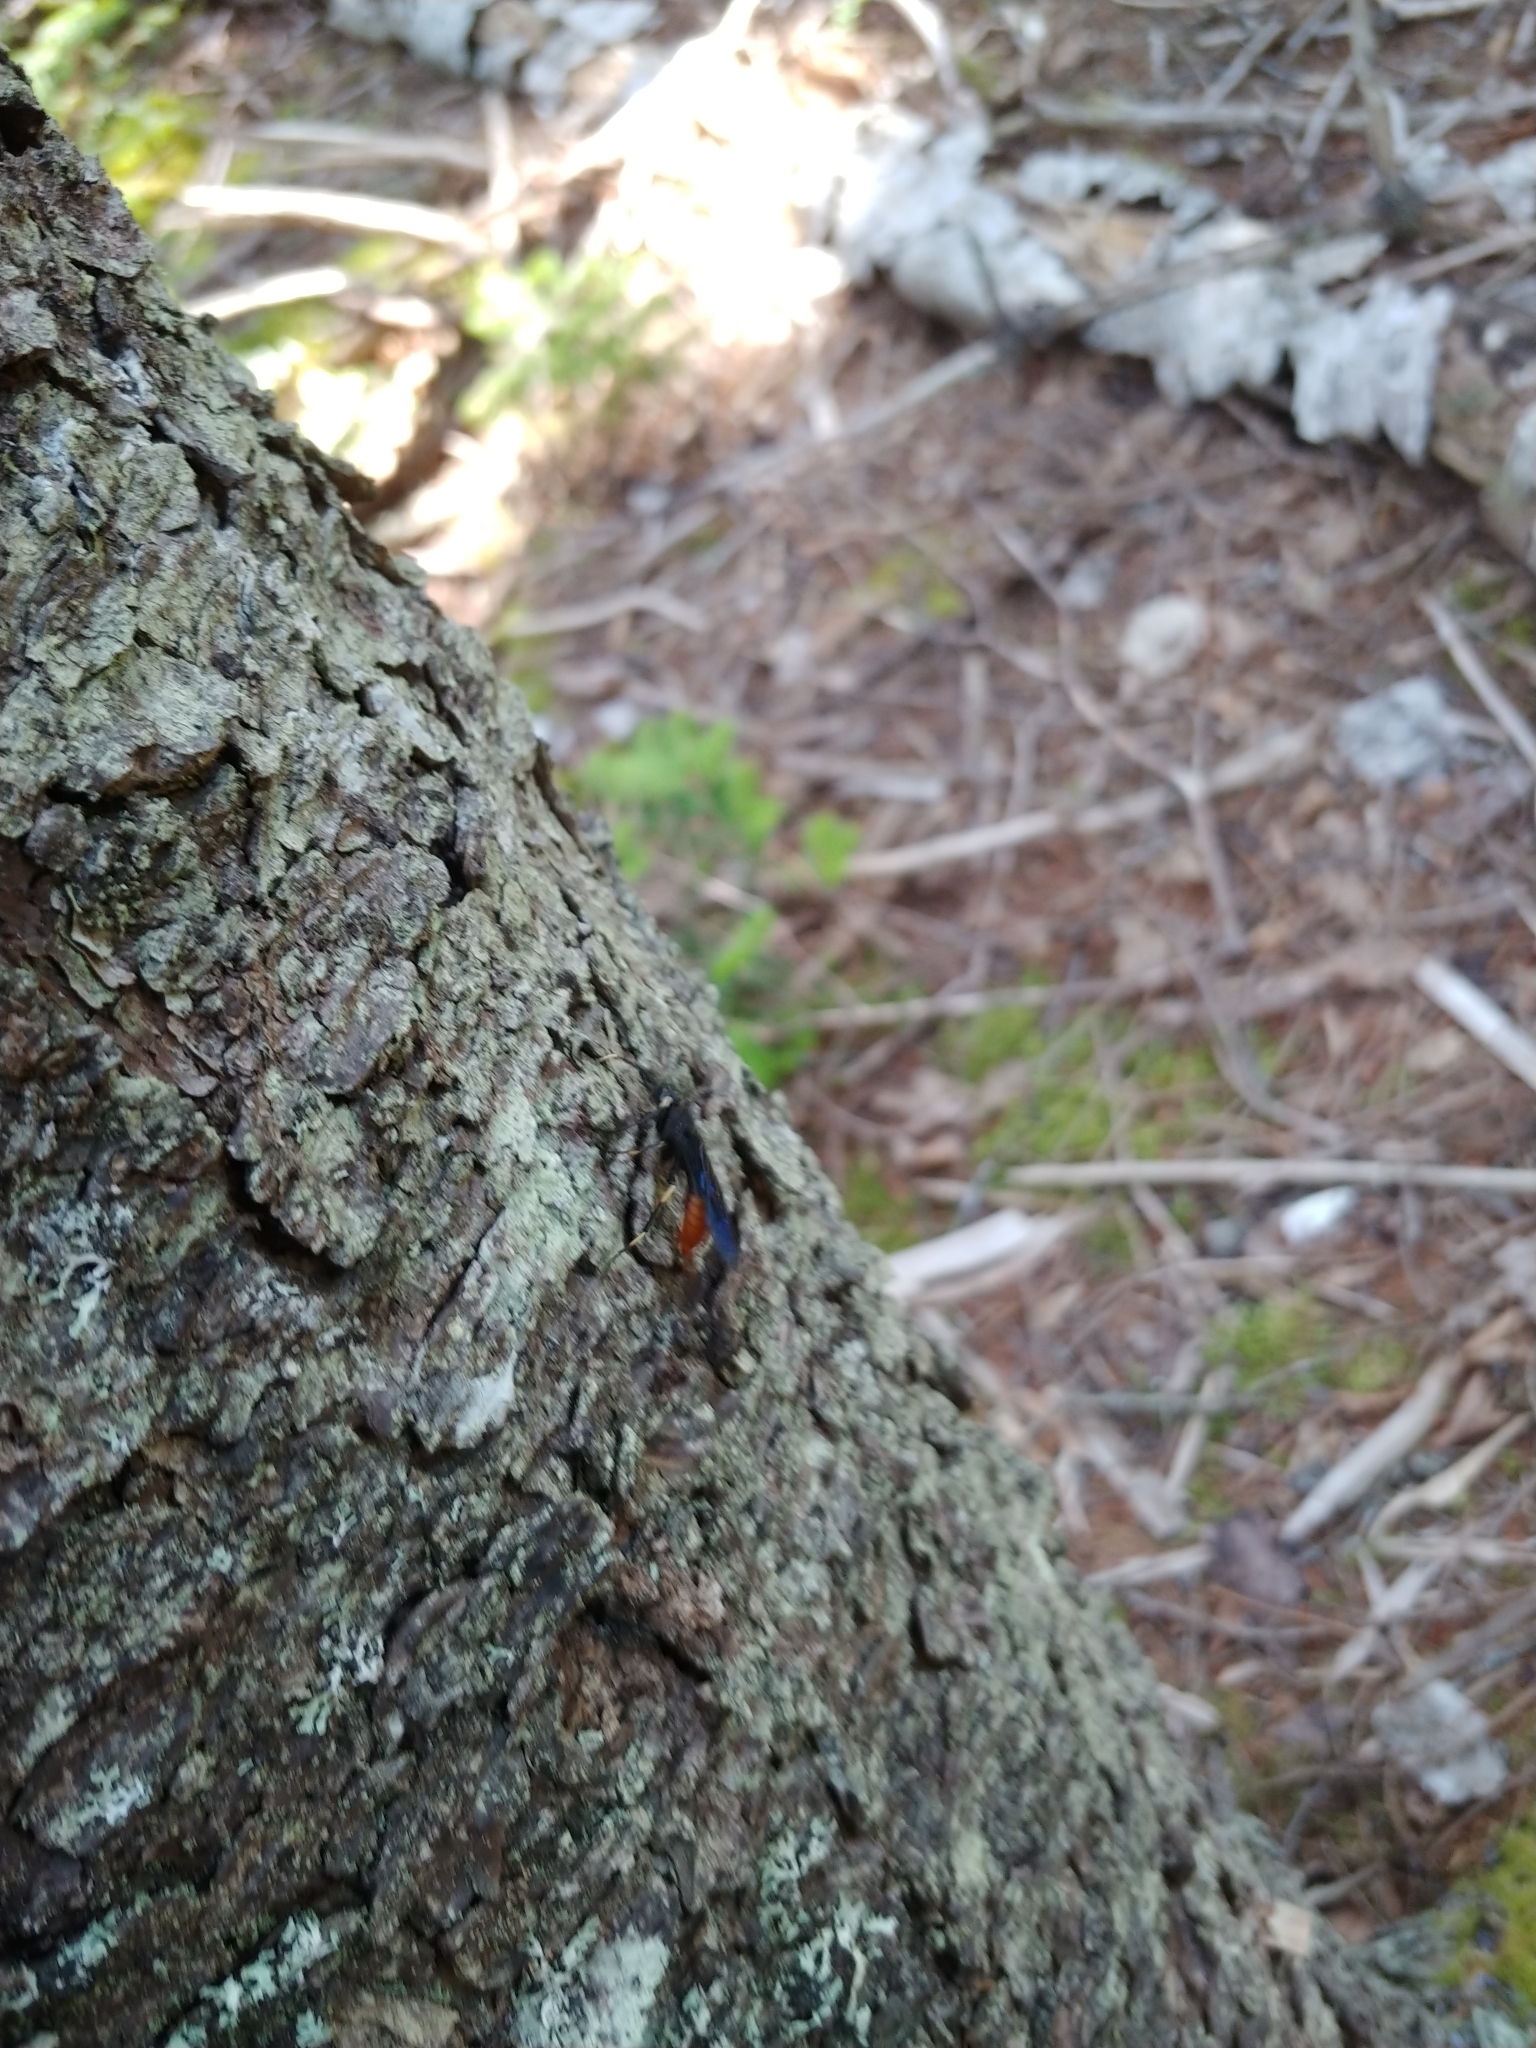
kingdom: Animalia
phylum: Arthropoda
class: Insecta
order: Hymenoptera
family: Siricidae
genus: Urocerus
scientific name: Urocerus cressoni
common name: Black-and-red horntail
